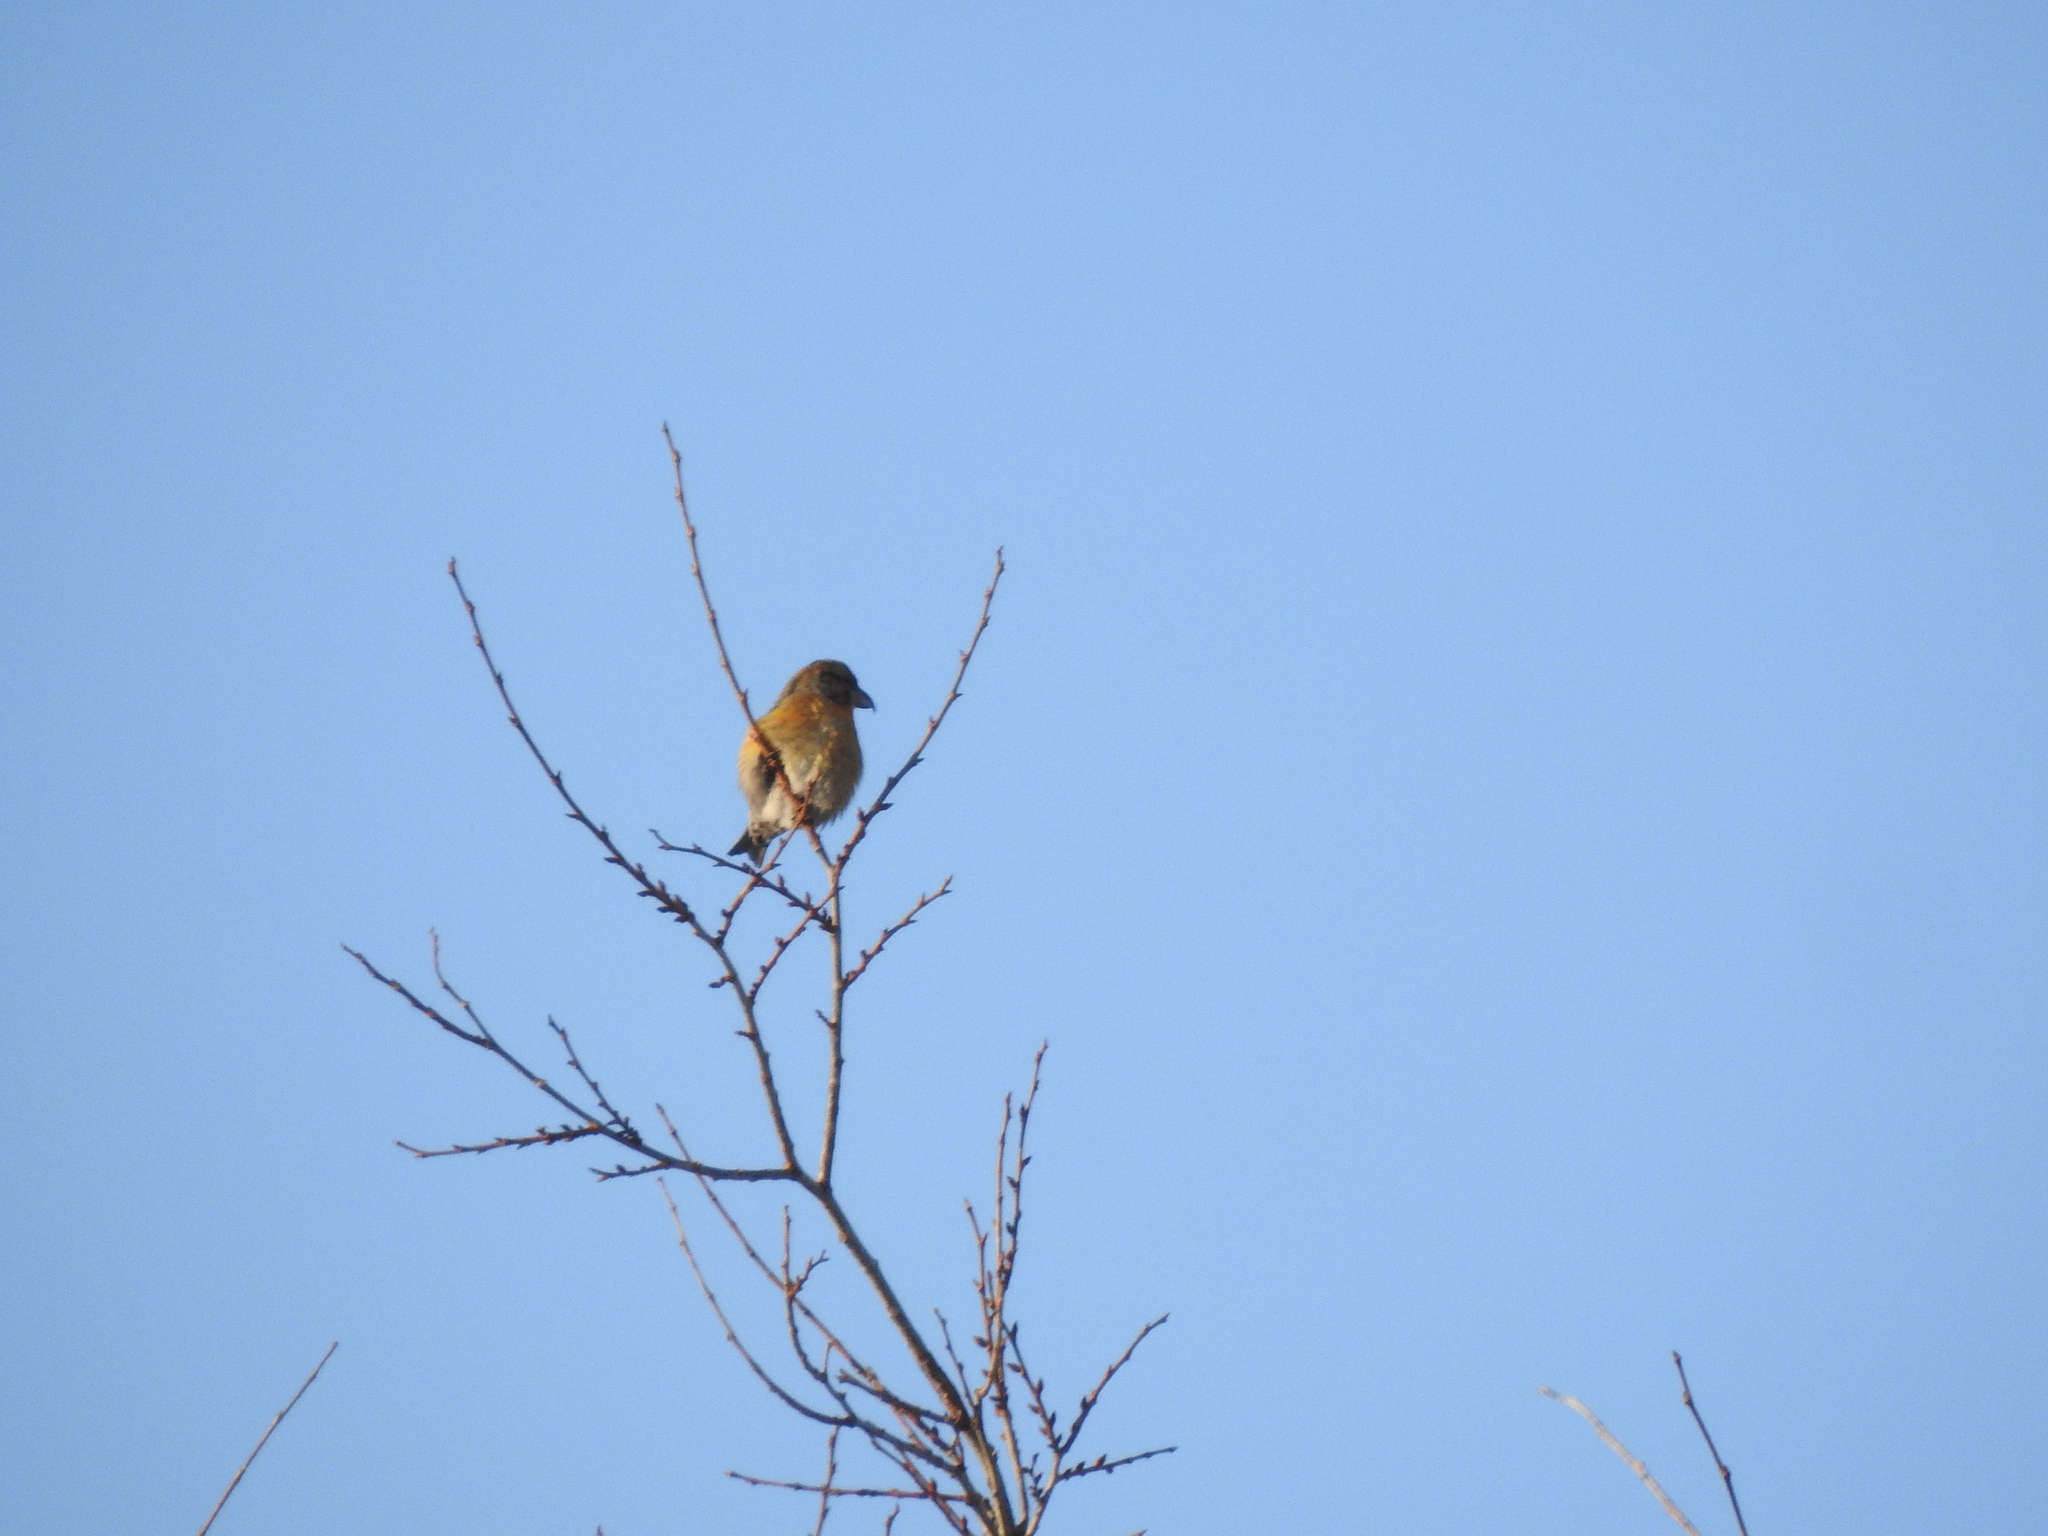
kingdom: Animalia
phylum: Chordata
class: Aves
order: Passeriformes
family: Fringillidae
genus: Loxia
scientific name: Loxia curvirostra
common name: Red crossbill
